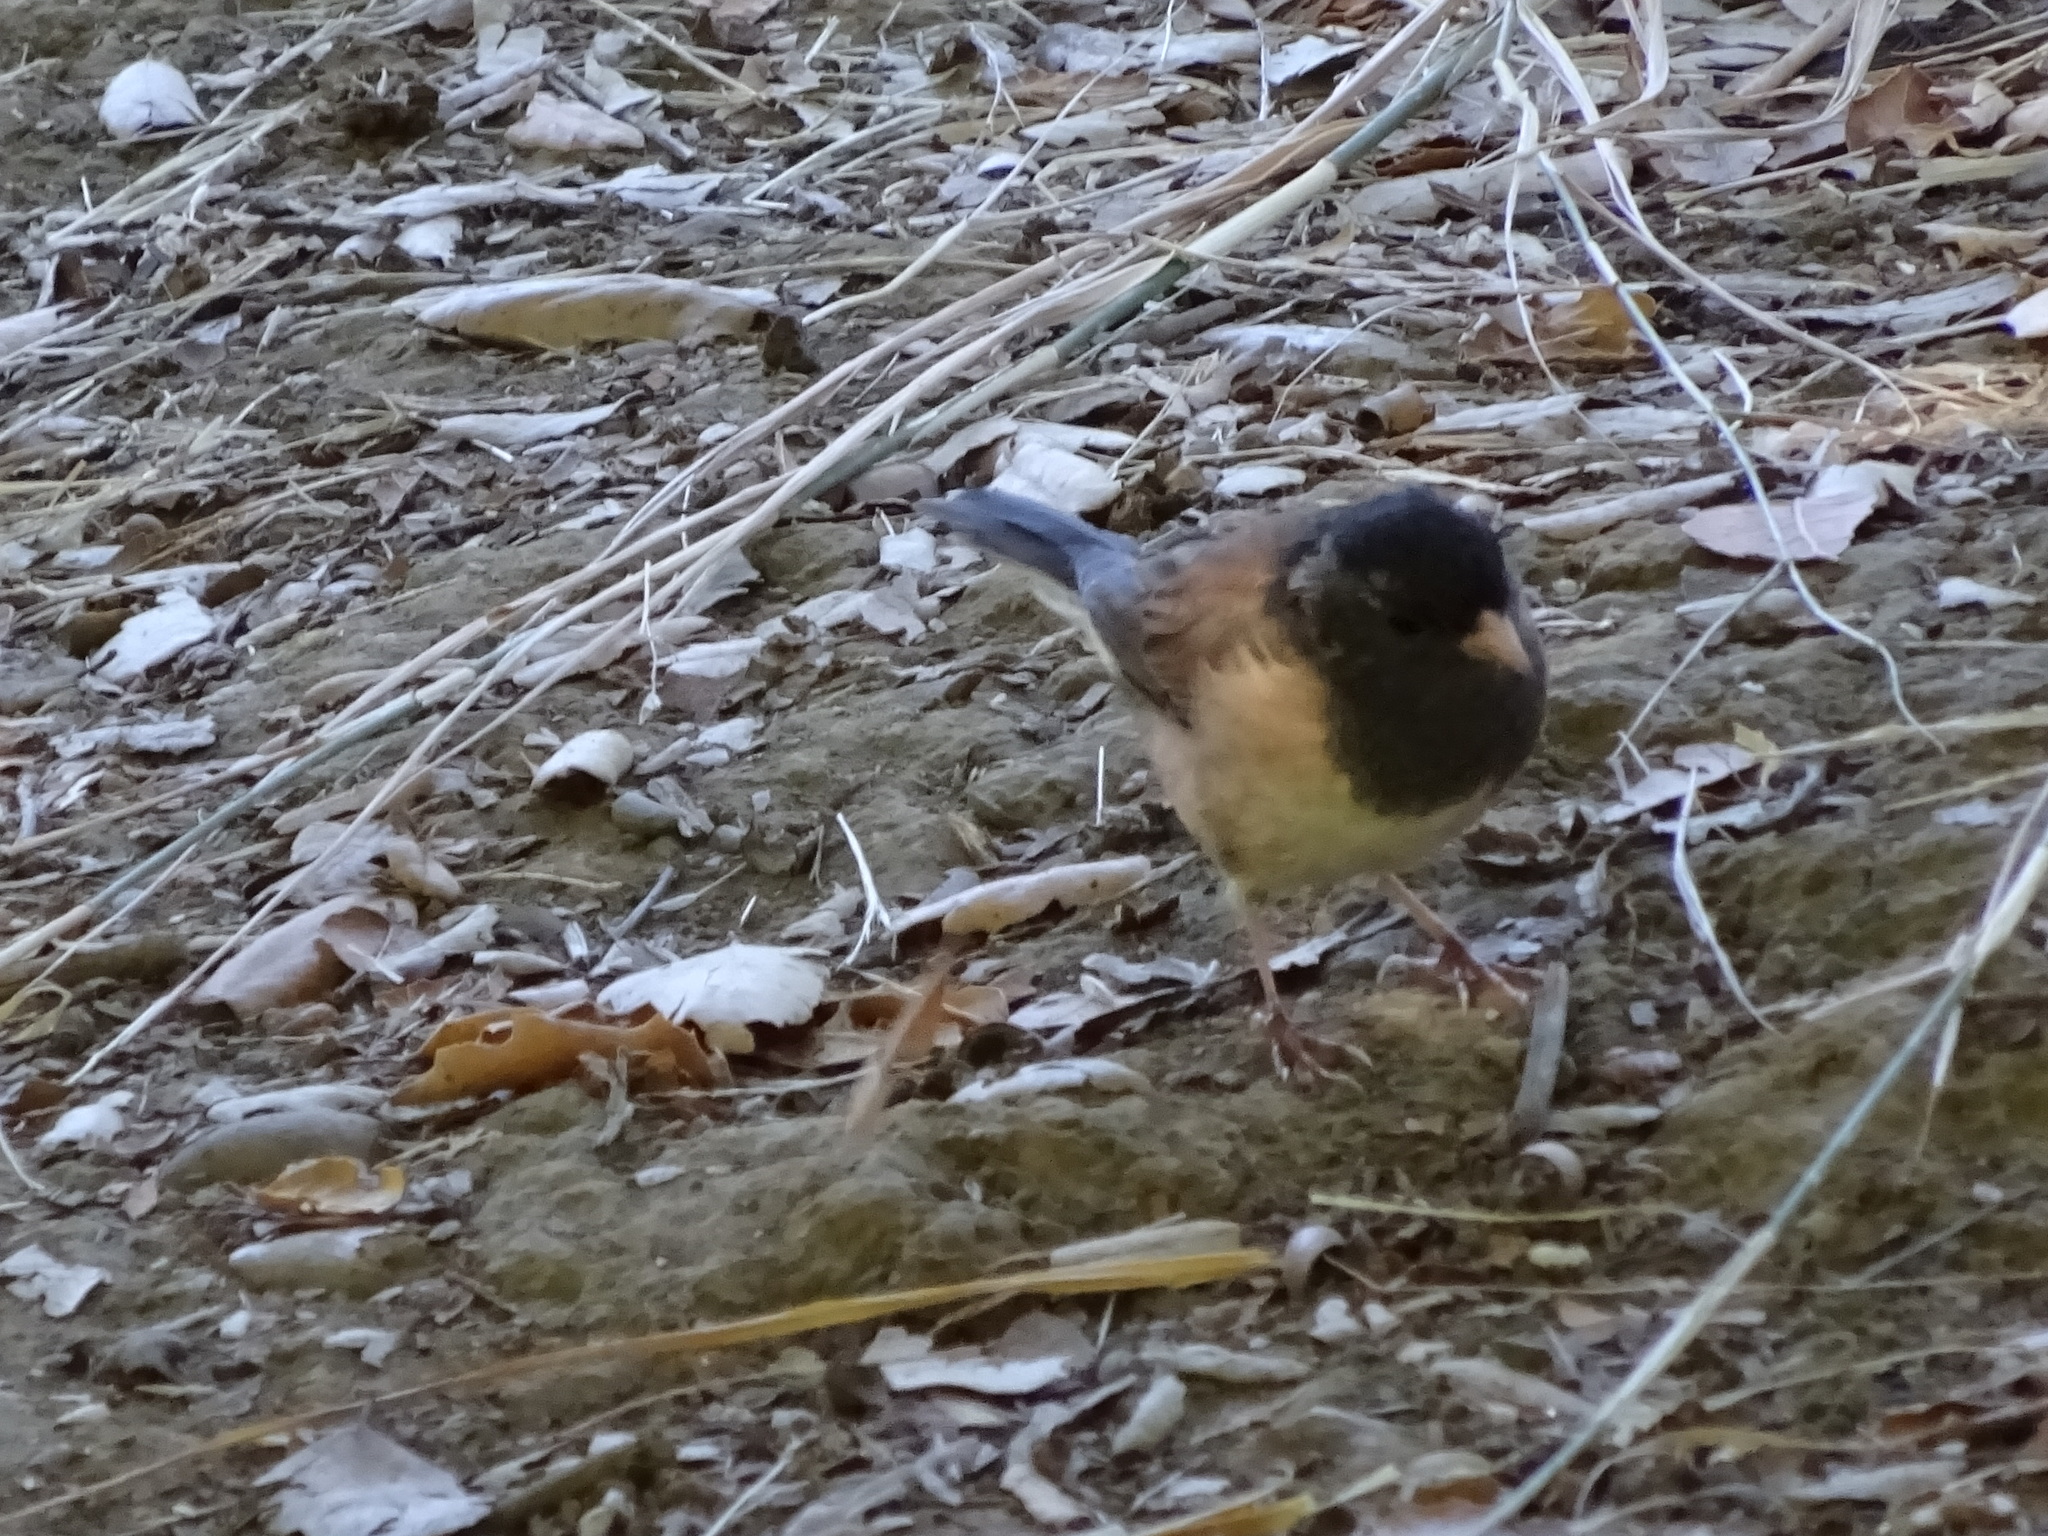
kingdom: Animalia
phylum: Chordata
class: Aves
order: Passeriformes
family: Passerellidae
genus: Junco
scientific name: Junco hyemalis
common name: Dark-eyed junco
